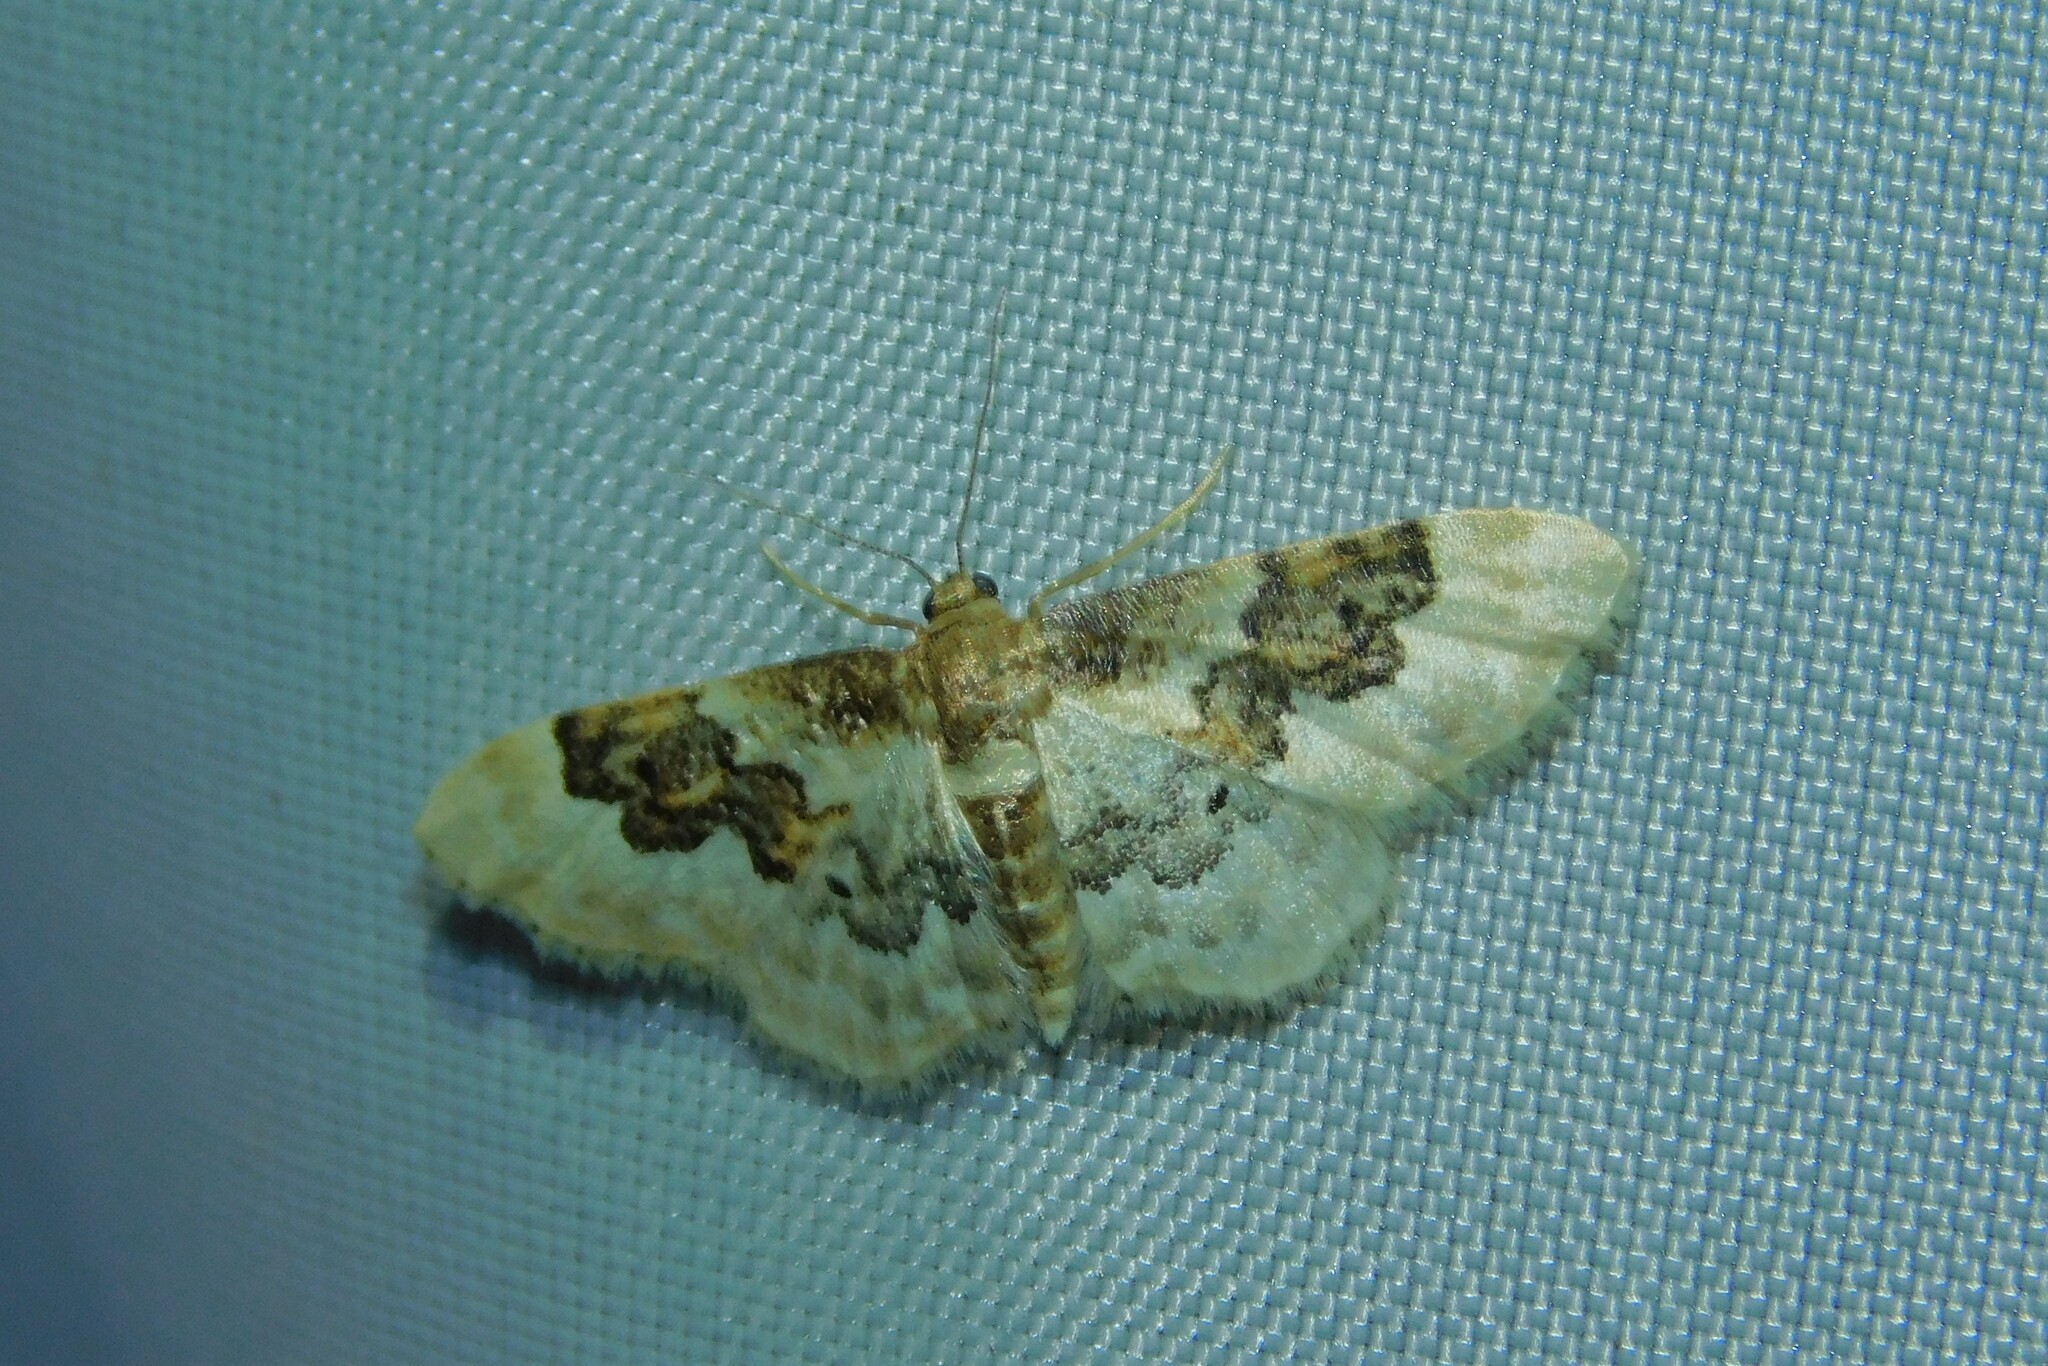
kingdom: Animalia
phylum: Arthropoda
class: Insecta
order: Lepidoptera
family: Geometridae
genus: Idaea
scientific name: Idaea rusticata
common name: Least carpet
